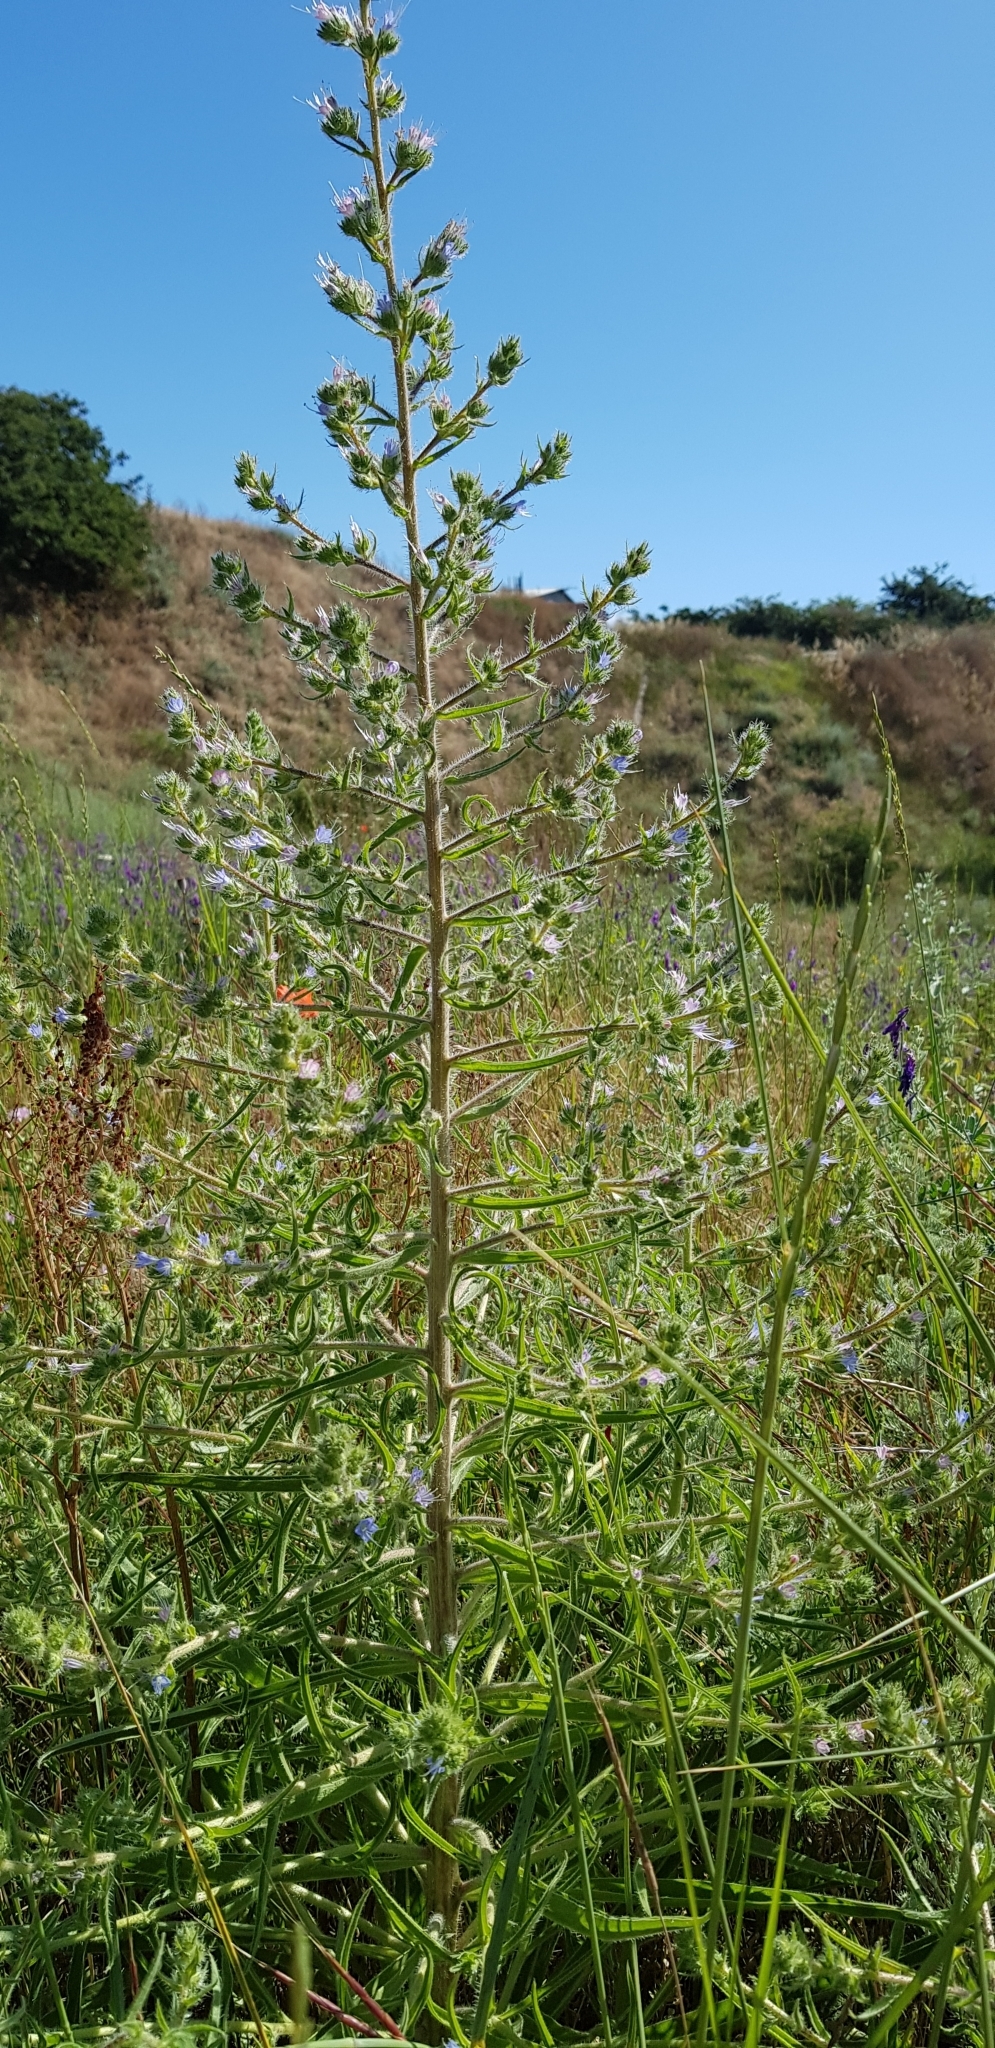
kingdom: Plantae
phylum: Tracheophyta
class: Magnoliopsida
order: Boraginales
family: Boraginaceae
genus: Echium
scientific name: Echium italicum
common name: Italian viper's bugloss
